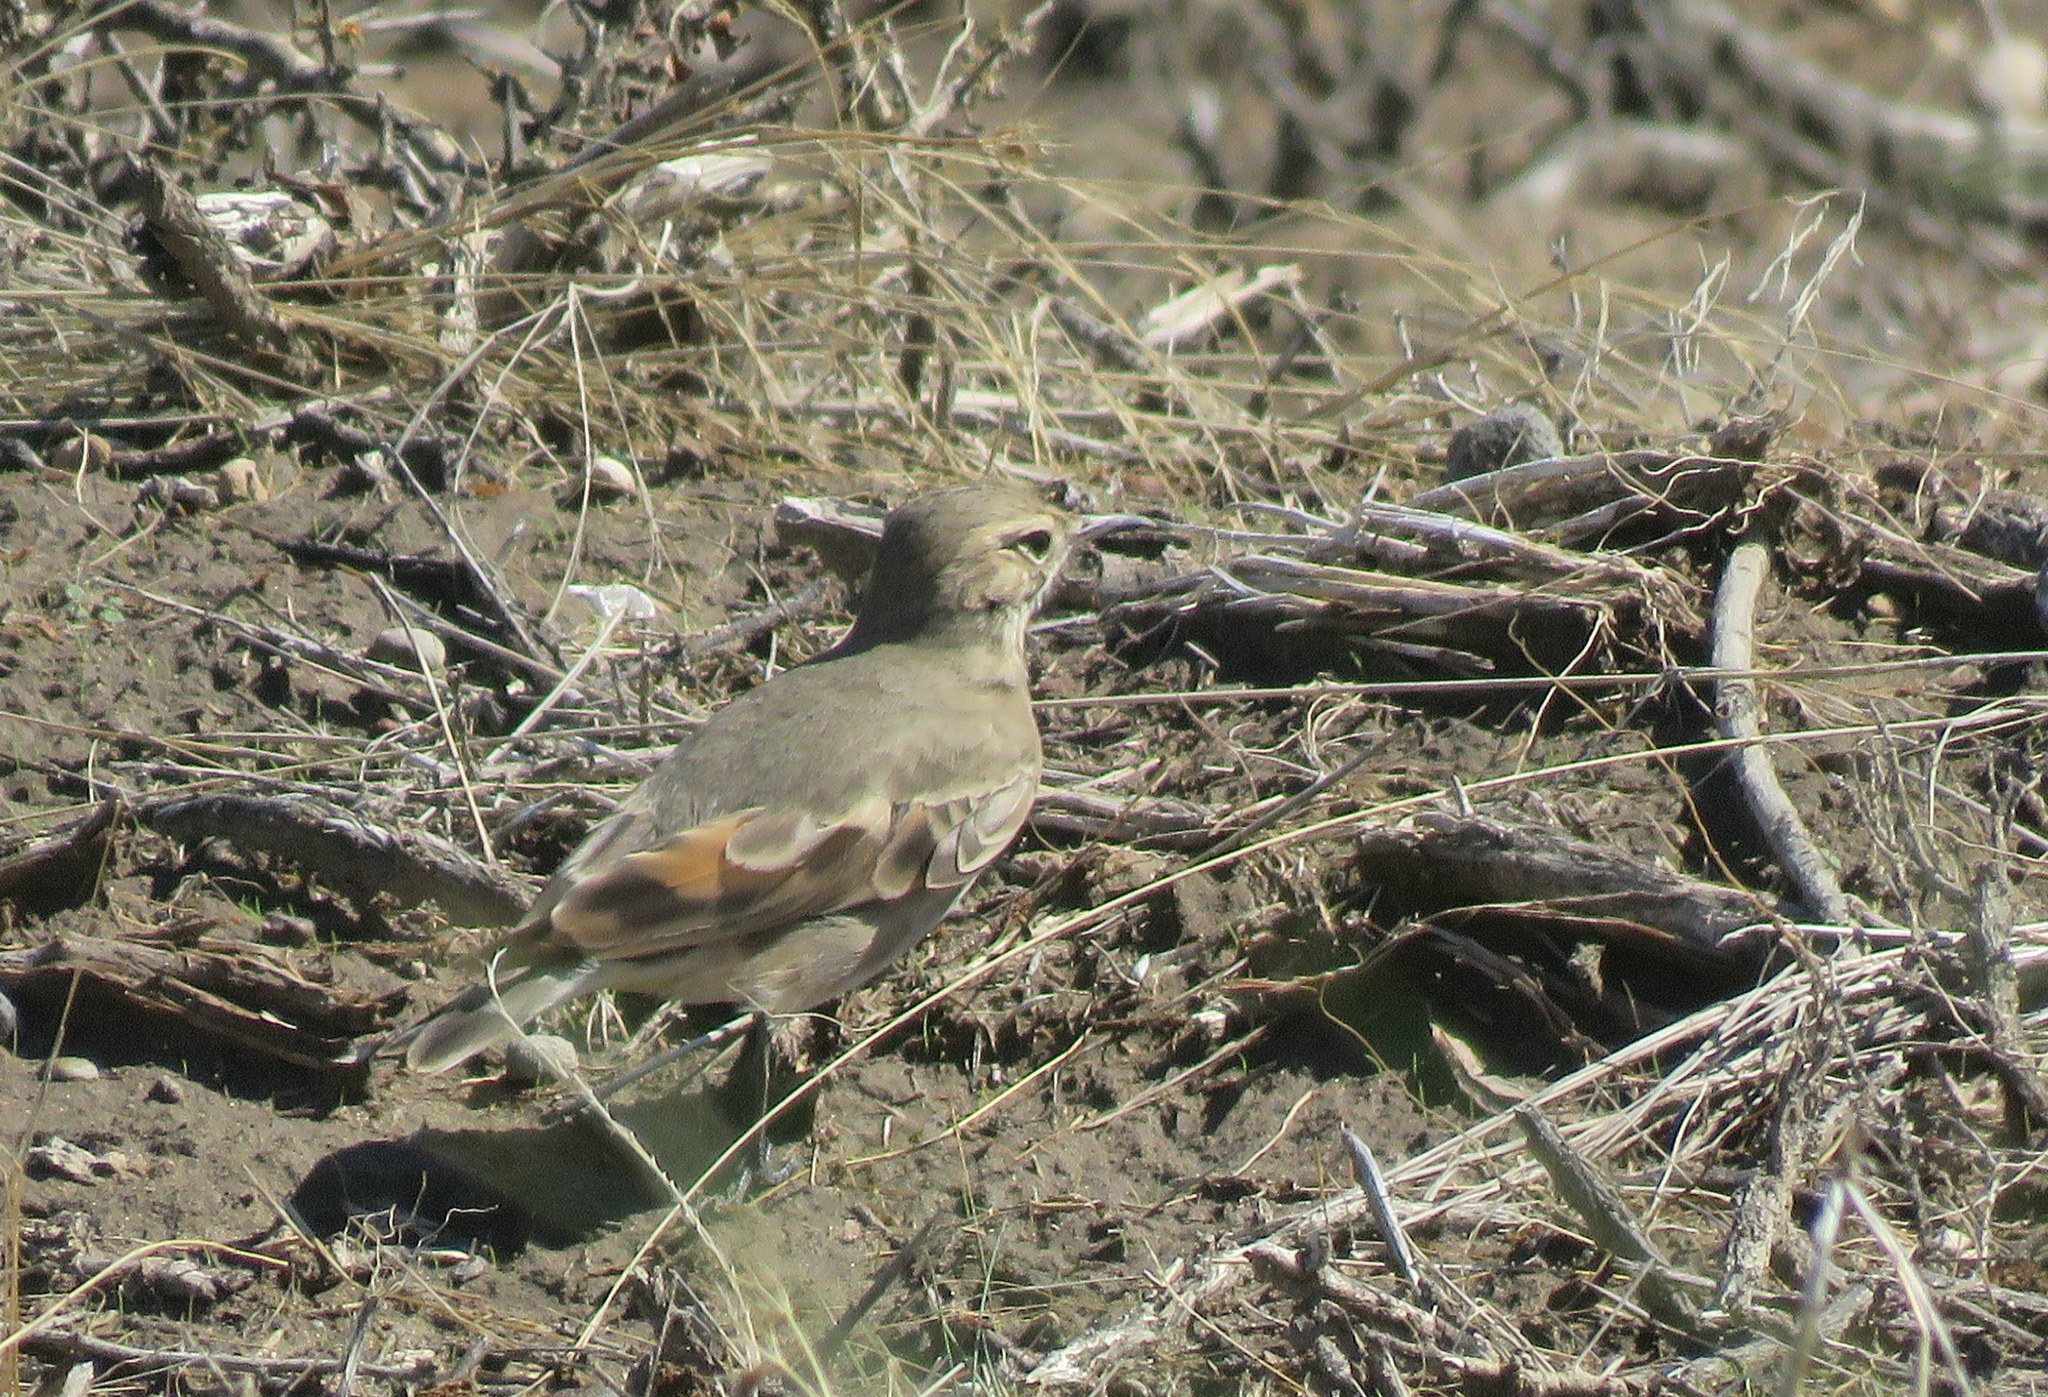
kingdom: Animalia
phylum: Chordata
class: Aves
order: Passeriformes
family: Furnariidae
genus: Geositta
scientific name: Geositta cunicularia
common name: Common miner
